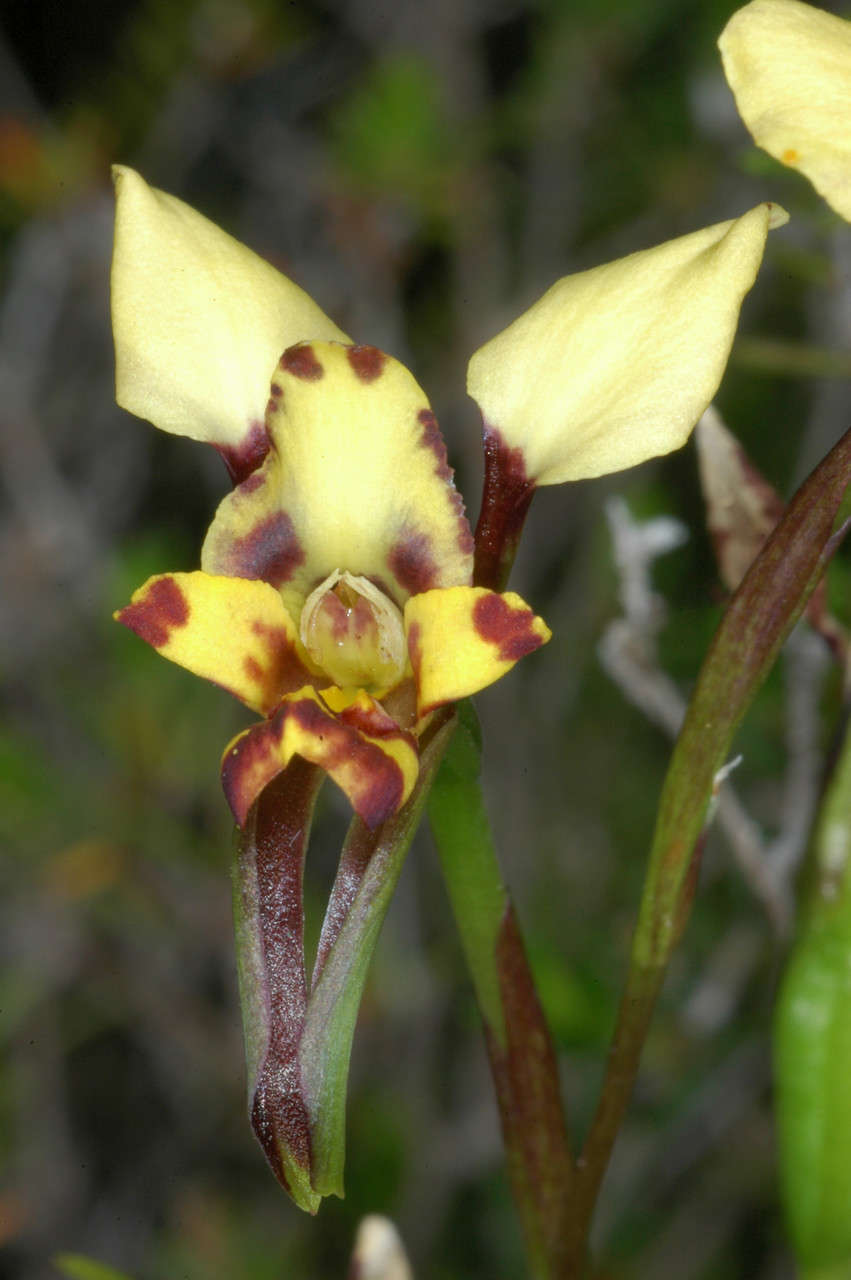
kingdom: Plantae
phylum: Tracheophyta
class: Liliopsida
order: Asparagales
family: Orchidaceae
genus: Diuris
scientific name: Diuris pardina
